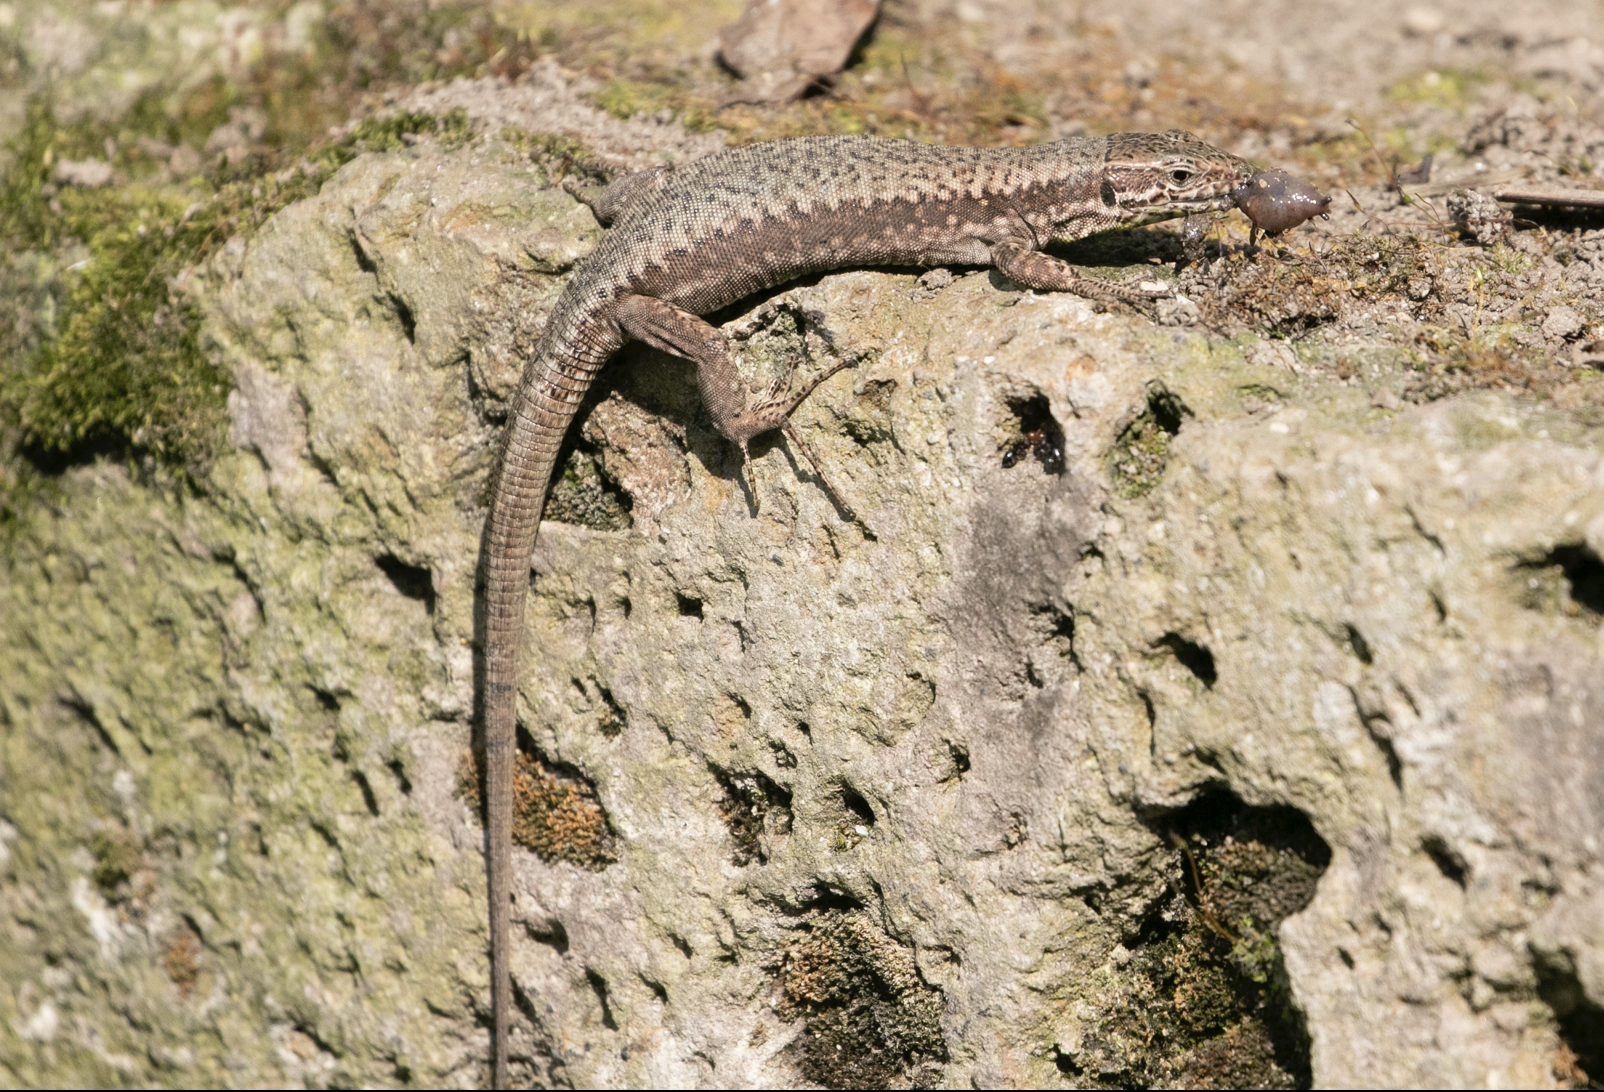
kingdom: Animalia
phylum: Chordata
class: Squamata
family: Lacertidae
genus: Podarcis
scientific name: Podarcis muralis
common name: Common wall lizard
